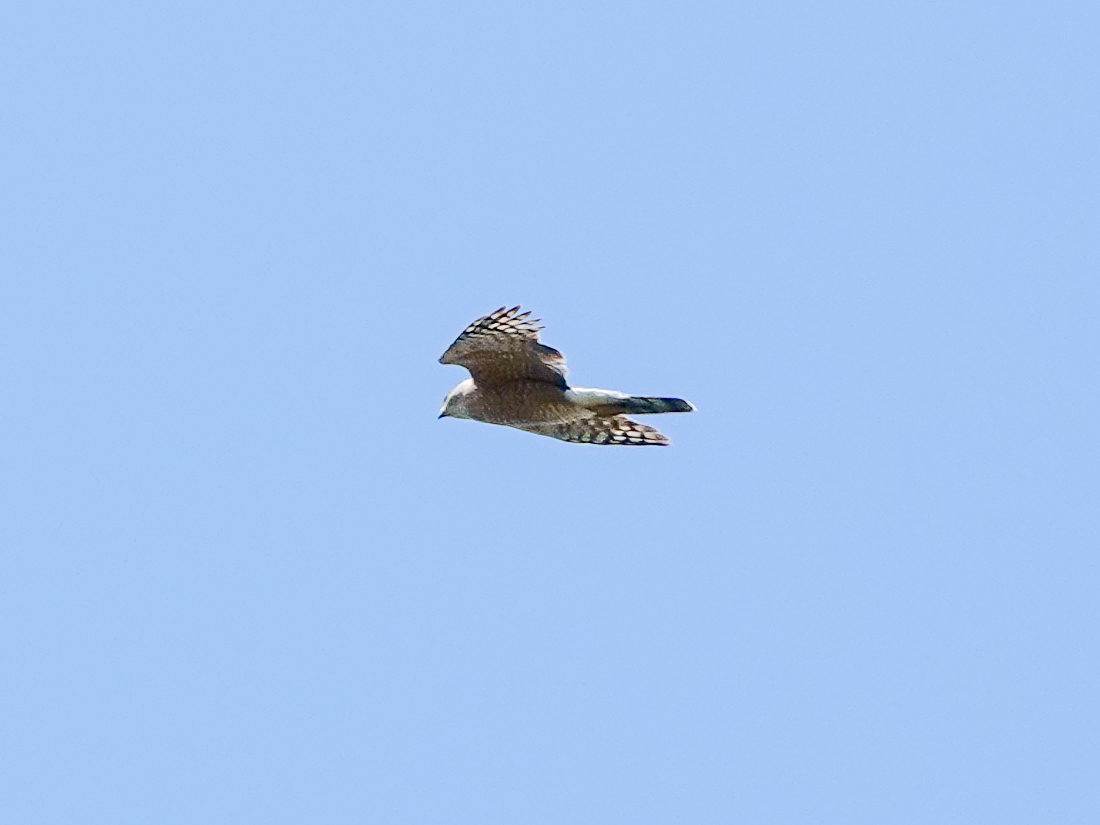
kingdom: Animalia
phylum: Chordata
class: Aves
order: Accipitriformes
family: Accipitridae
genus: Accipiter
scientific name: Accipiter striatus
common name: Sharp-shinned hawk
